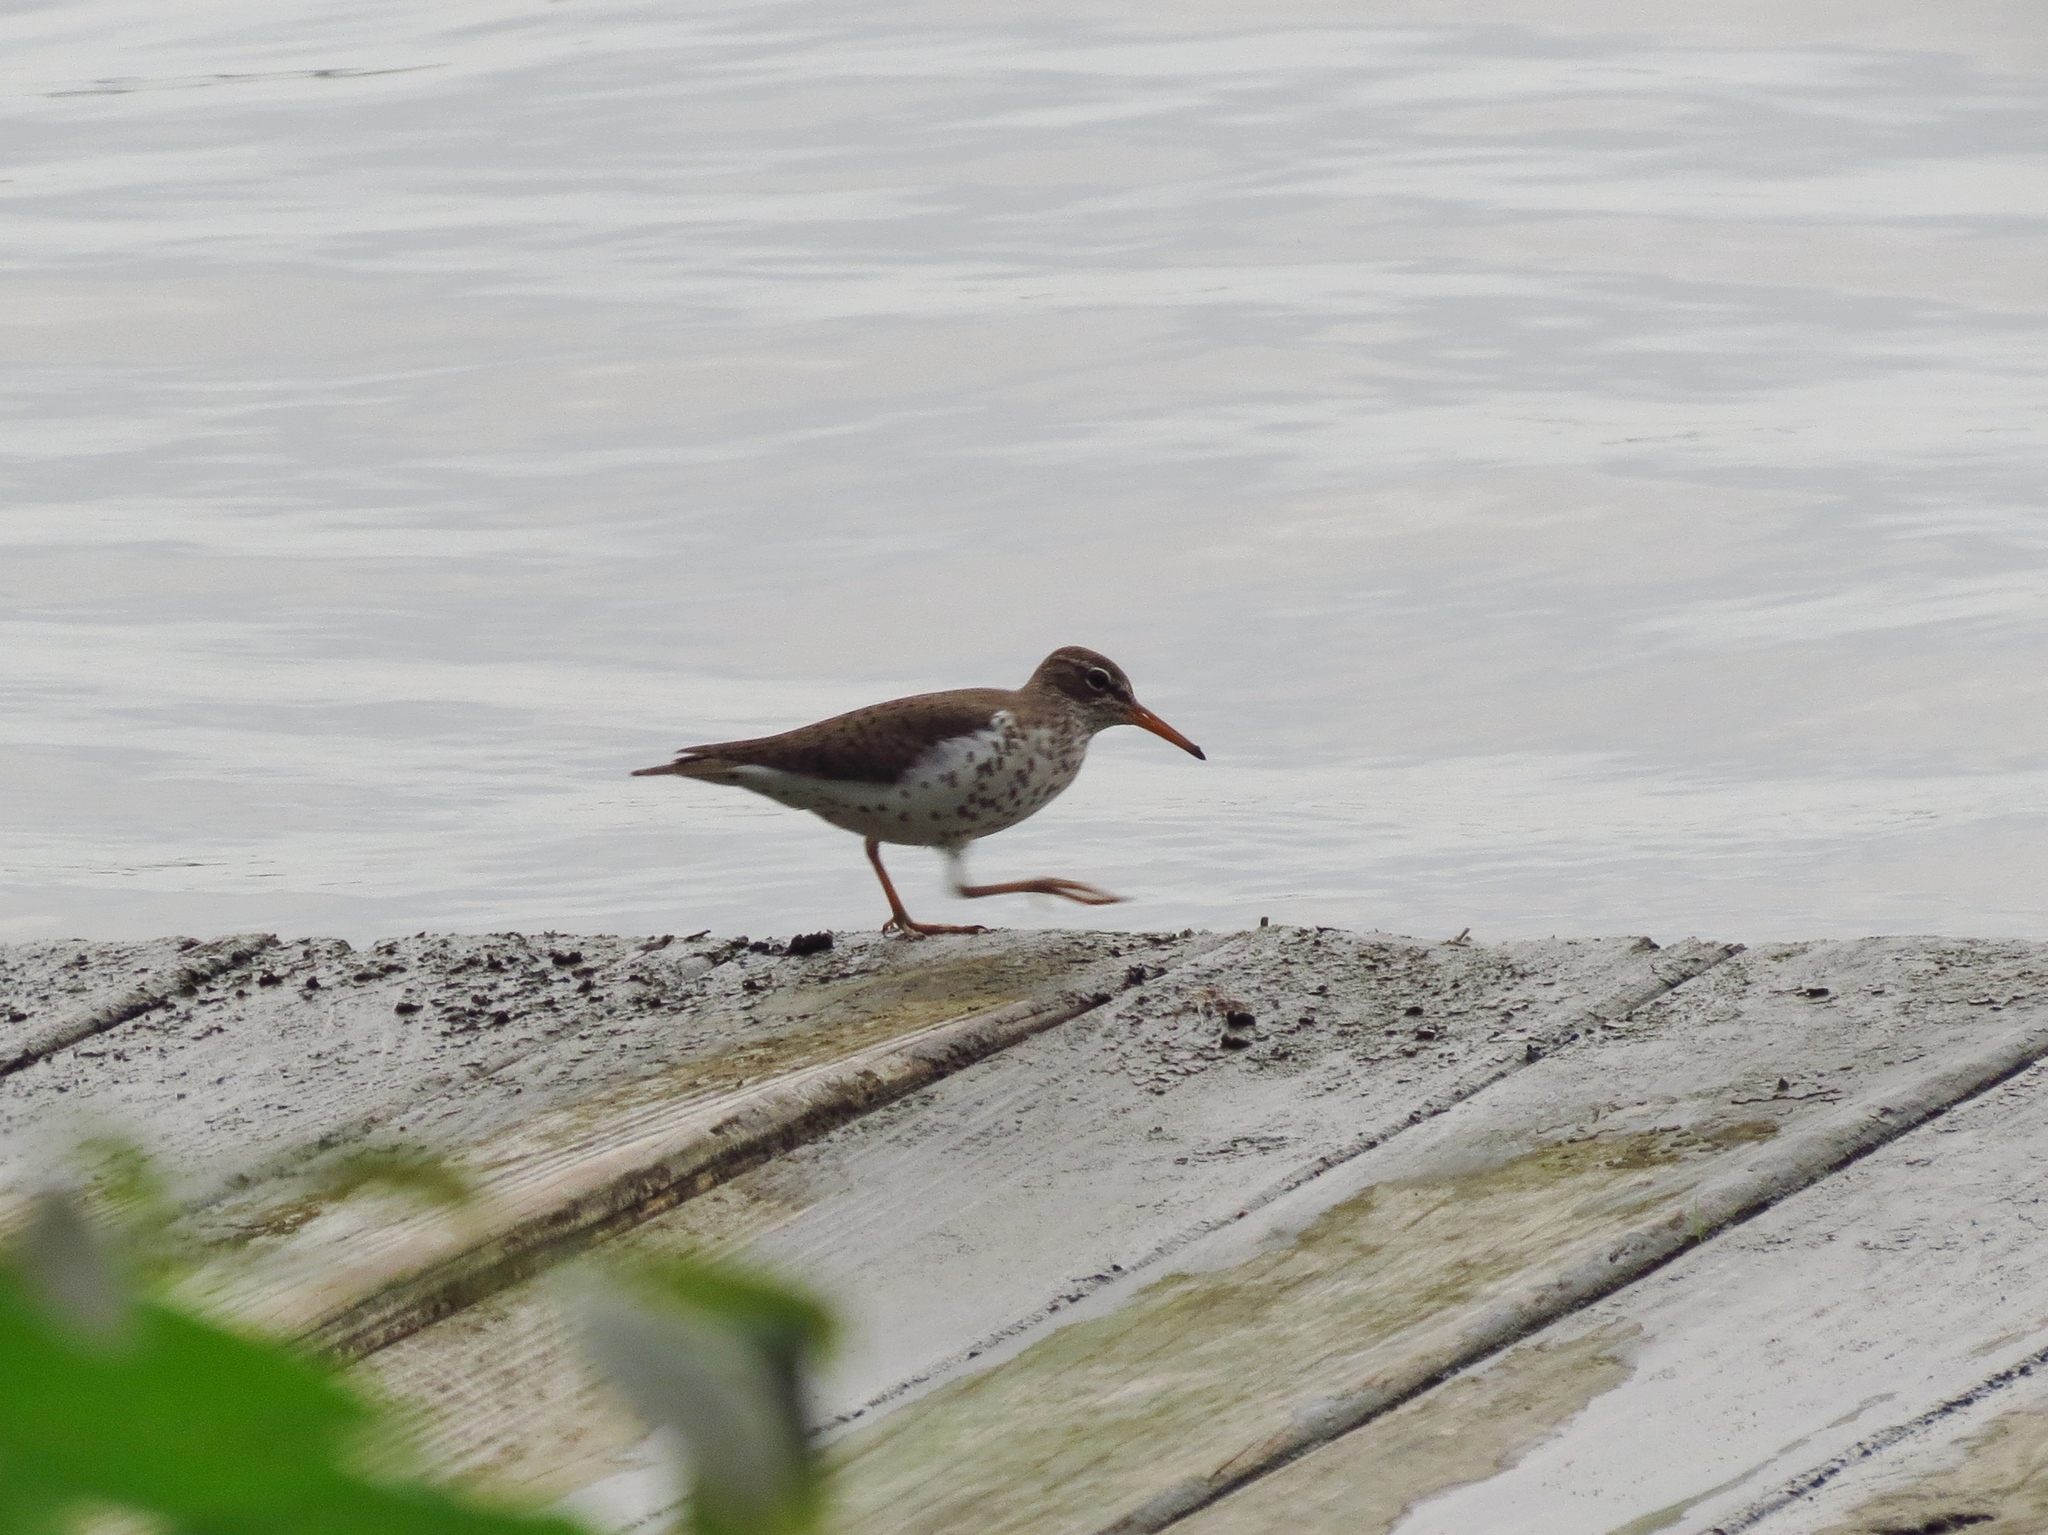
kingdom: Animalia
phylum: Chordata
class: Aves
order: Charadriiformes
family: Scolopacidae
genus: Actitis
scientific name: Actitis macularius
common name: Spotted sandpiper
